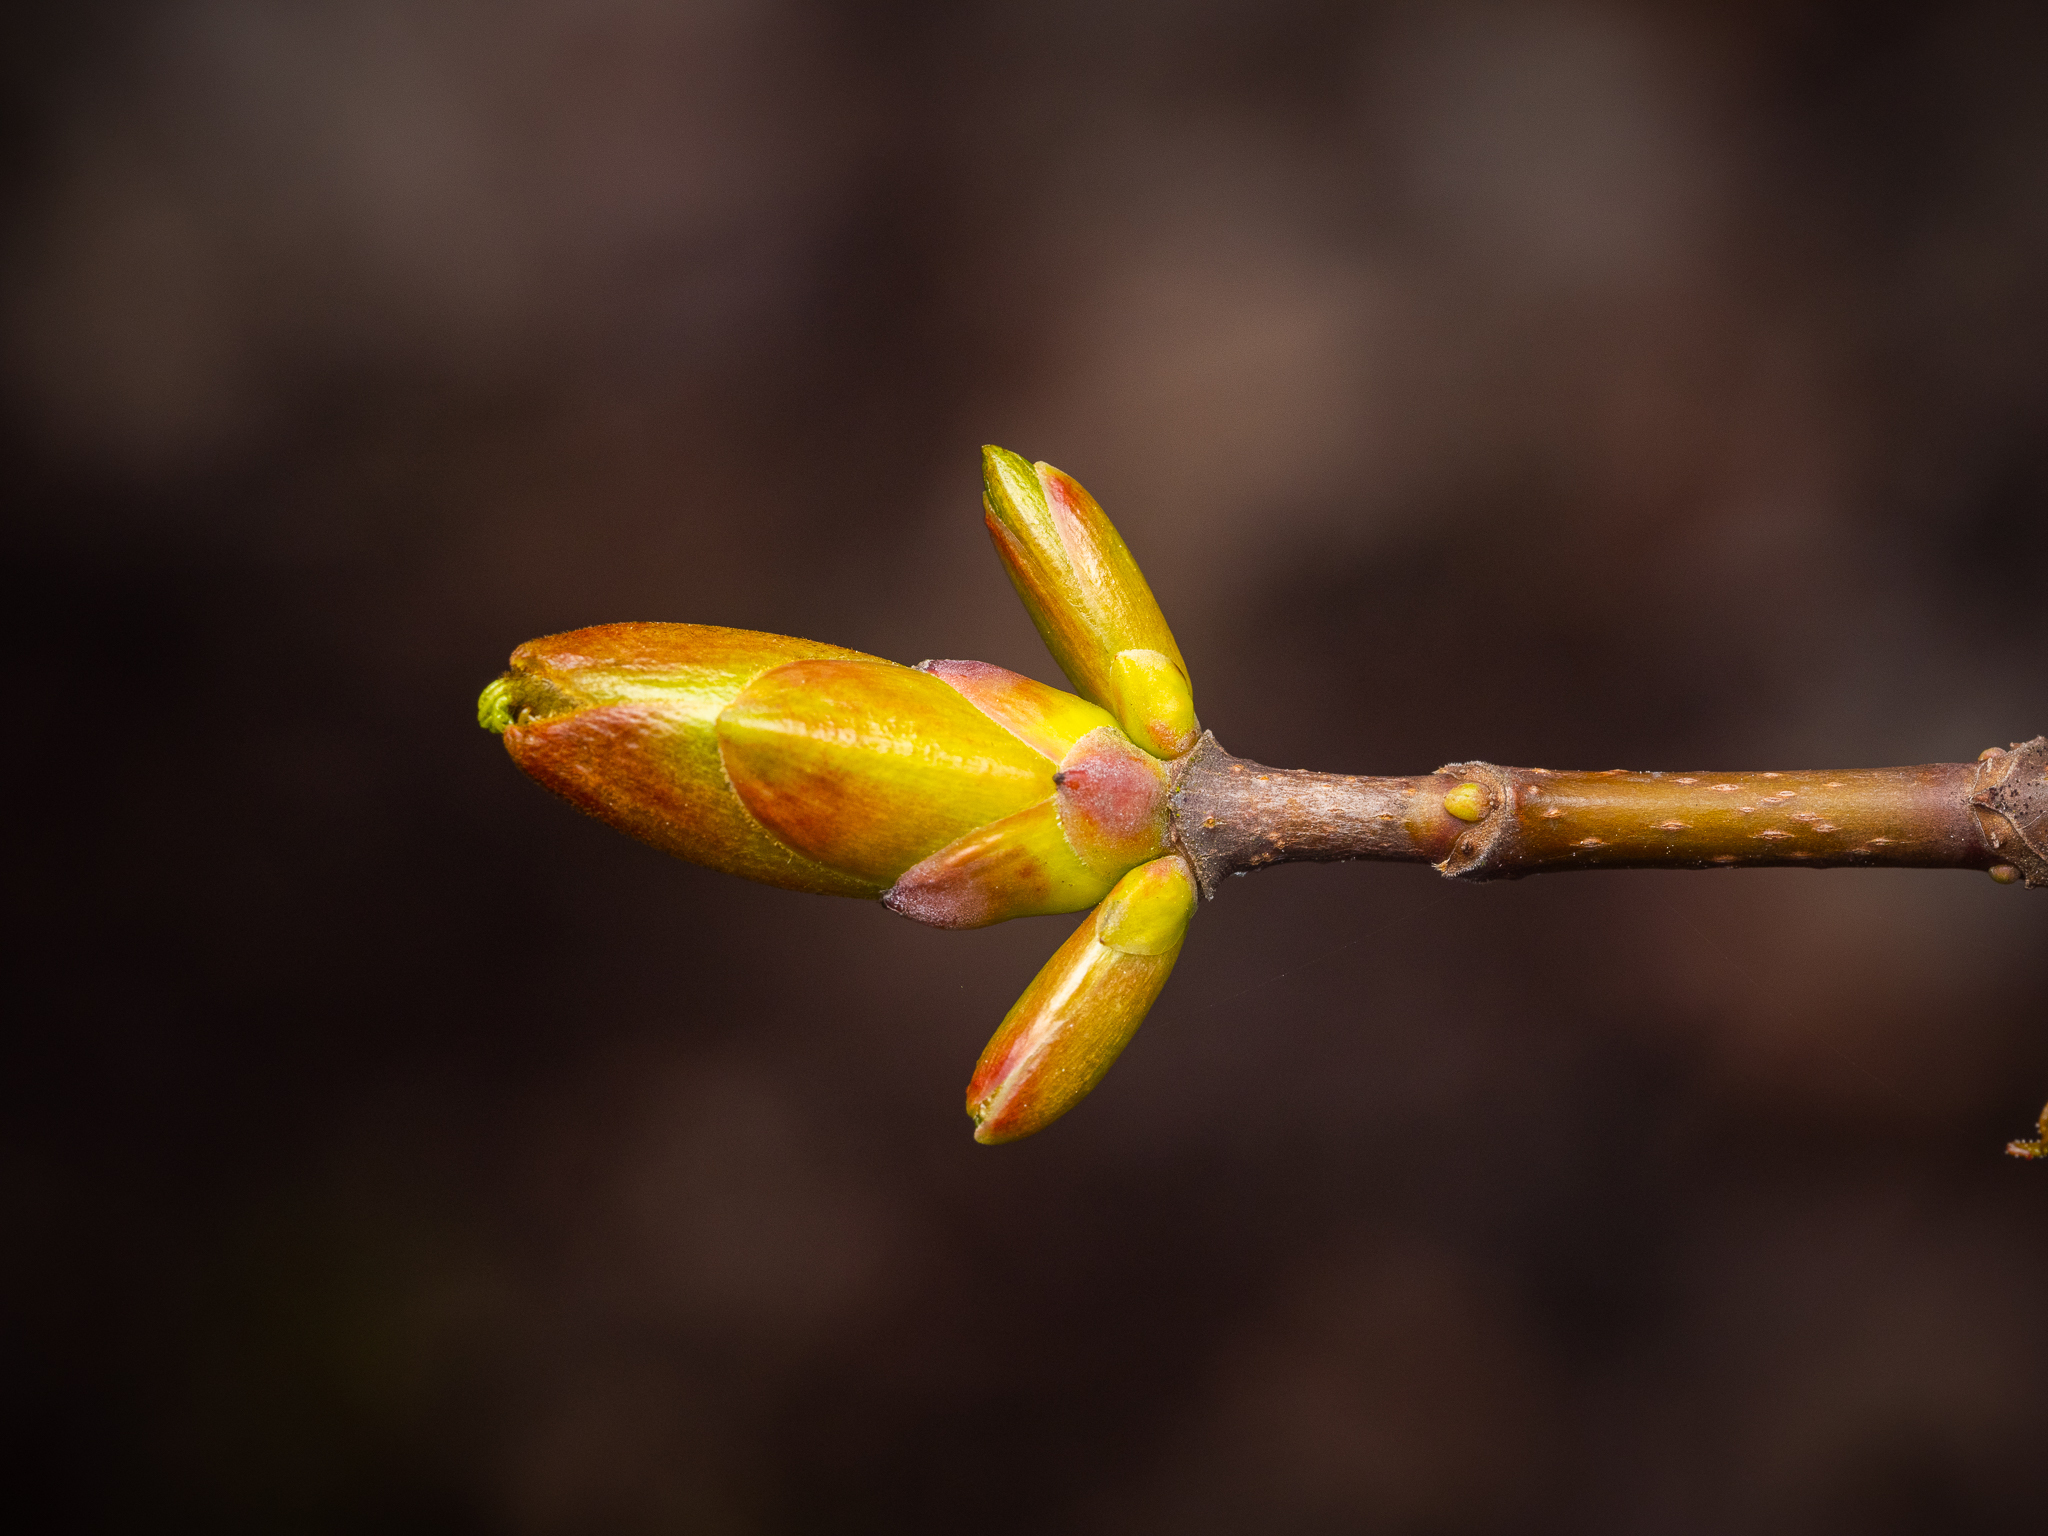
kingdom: Plantae
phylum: Tracheophyta
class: Magnoliopsida
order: Sapindales
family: Sapindaceae
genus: Acer
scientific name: Acer pseudoplatanus
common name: Sycamore
